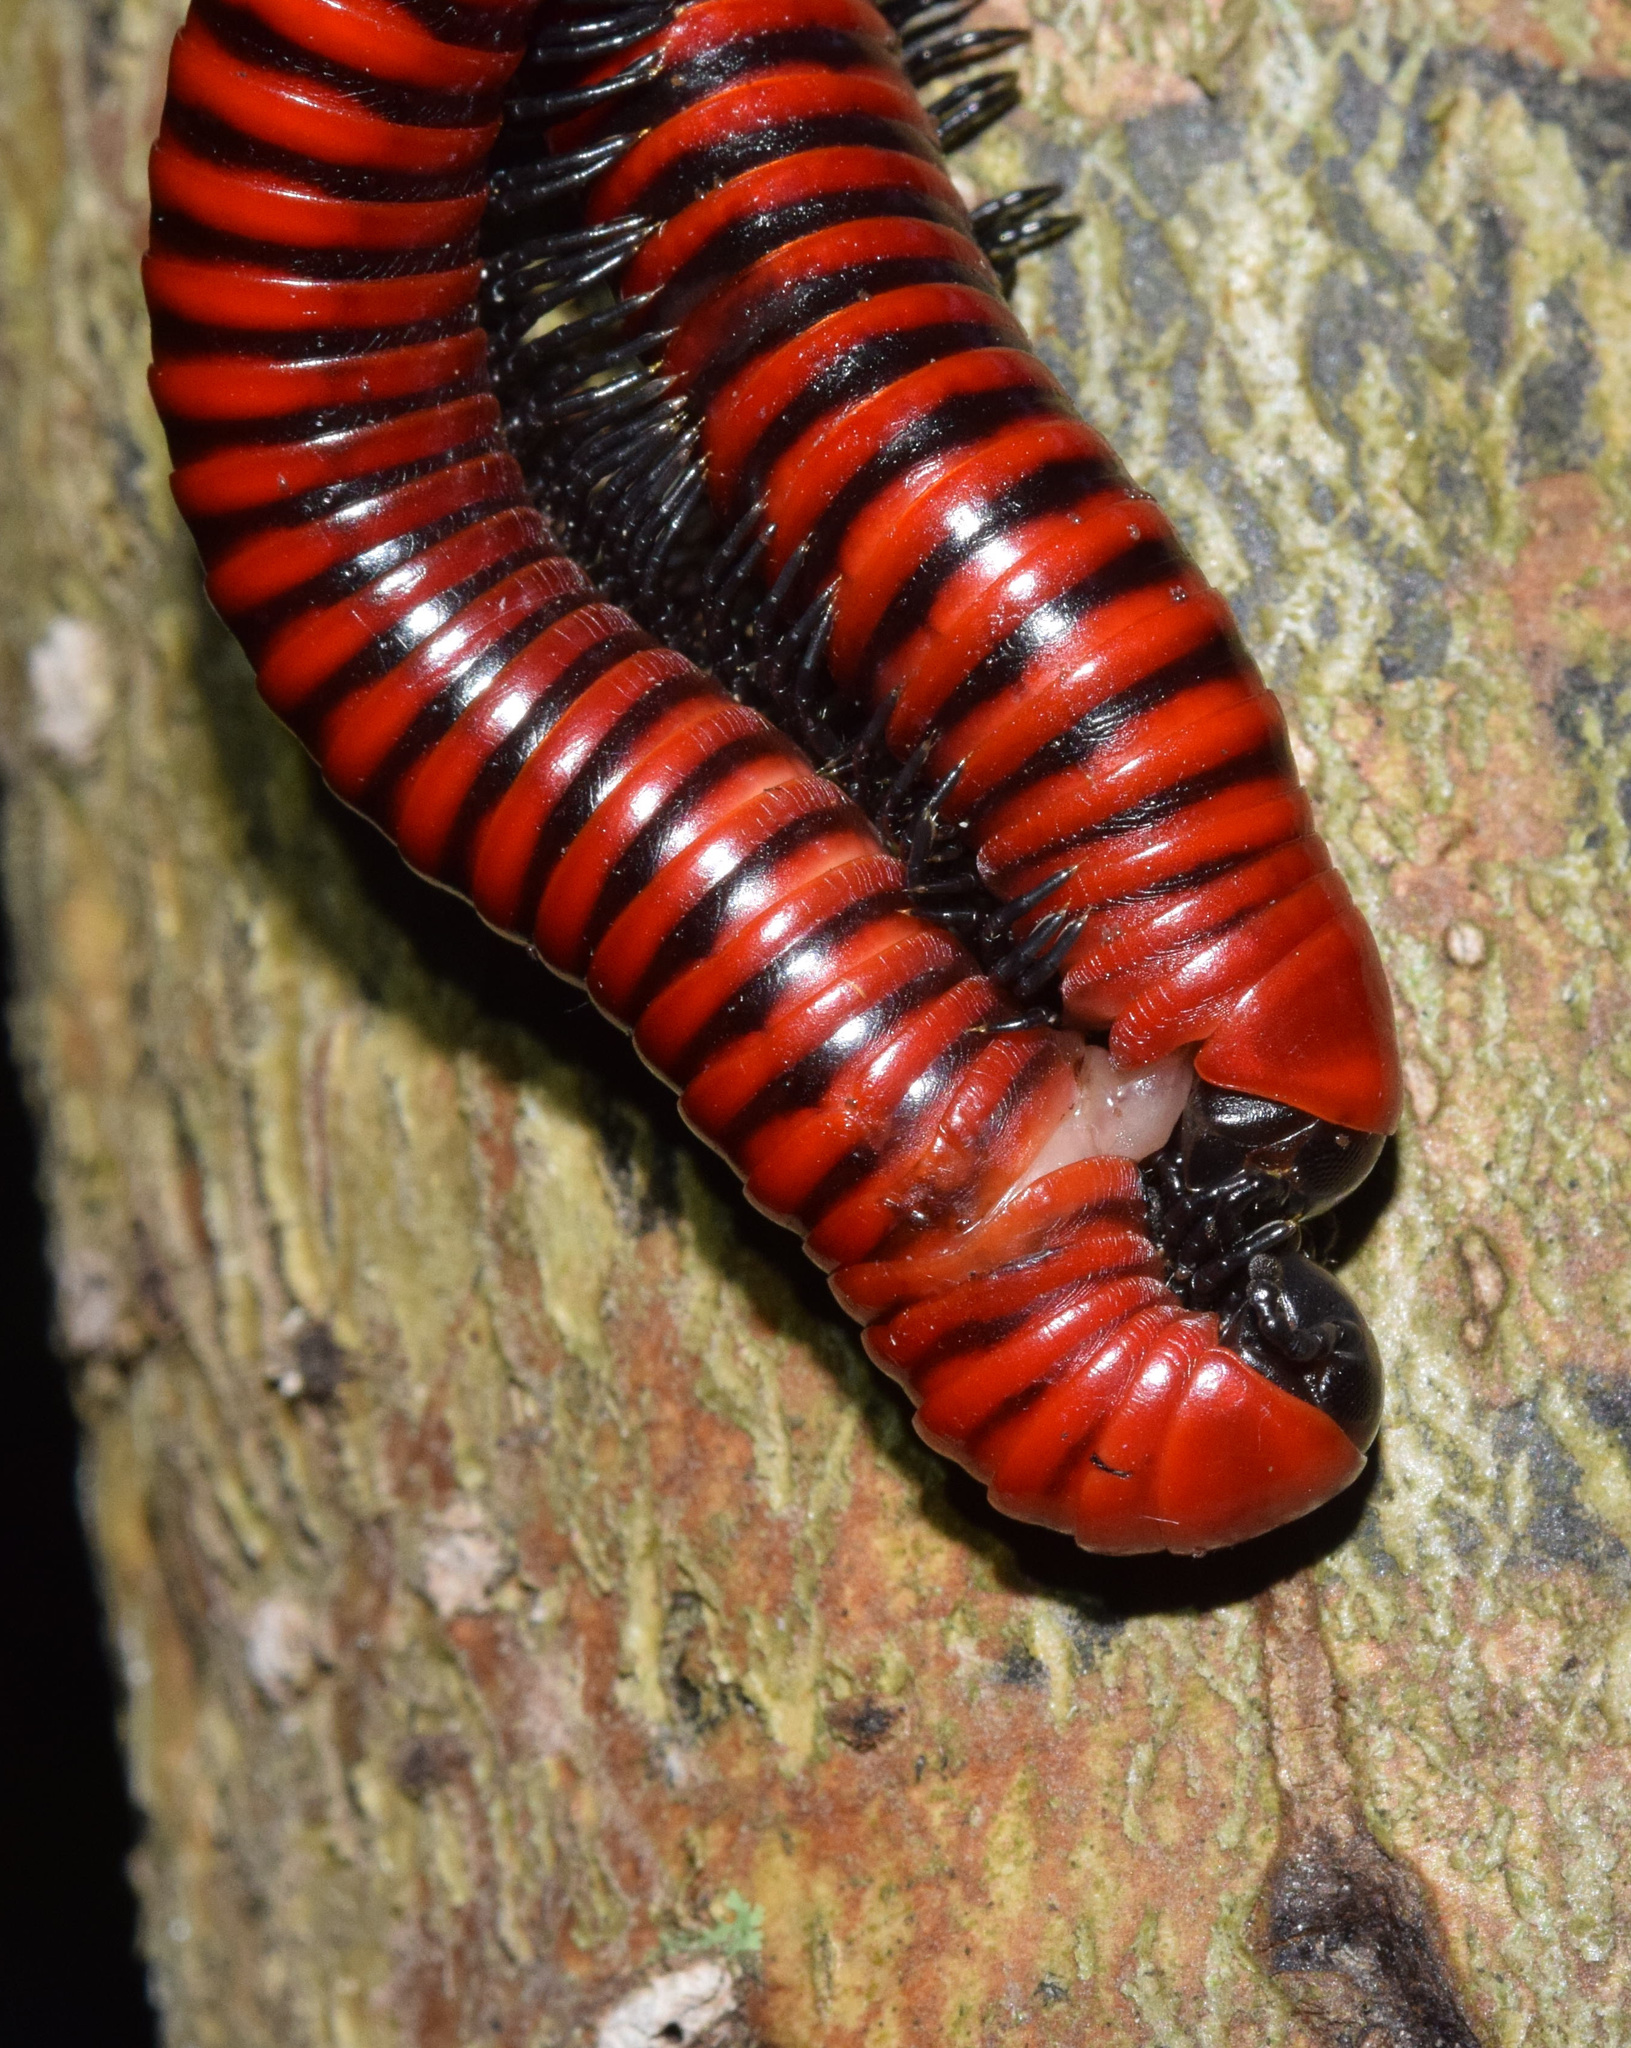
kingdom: Animalia
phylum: Arthropoda
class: Diplopoda
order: Spirobolida
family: Pachybolidae
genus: Centrobolus
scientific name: Centrobolus anulatus
